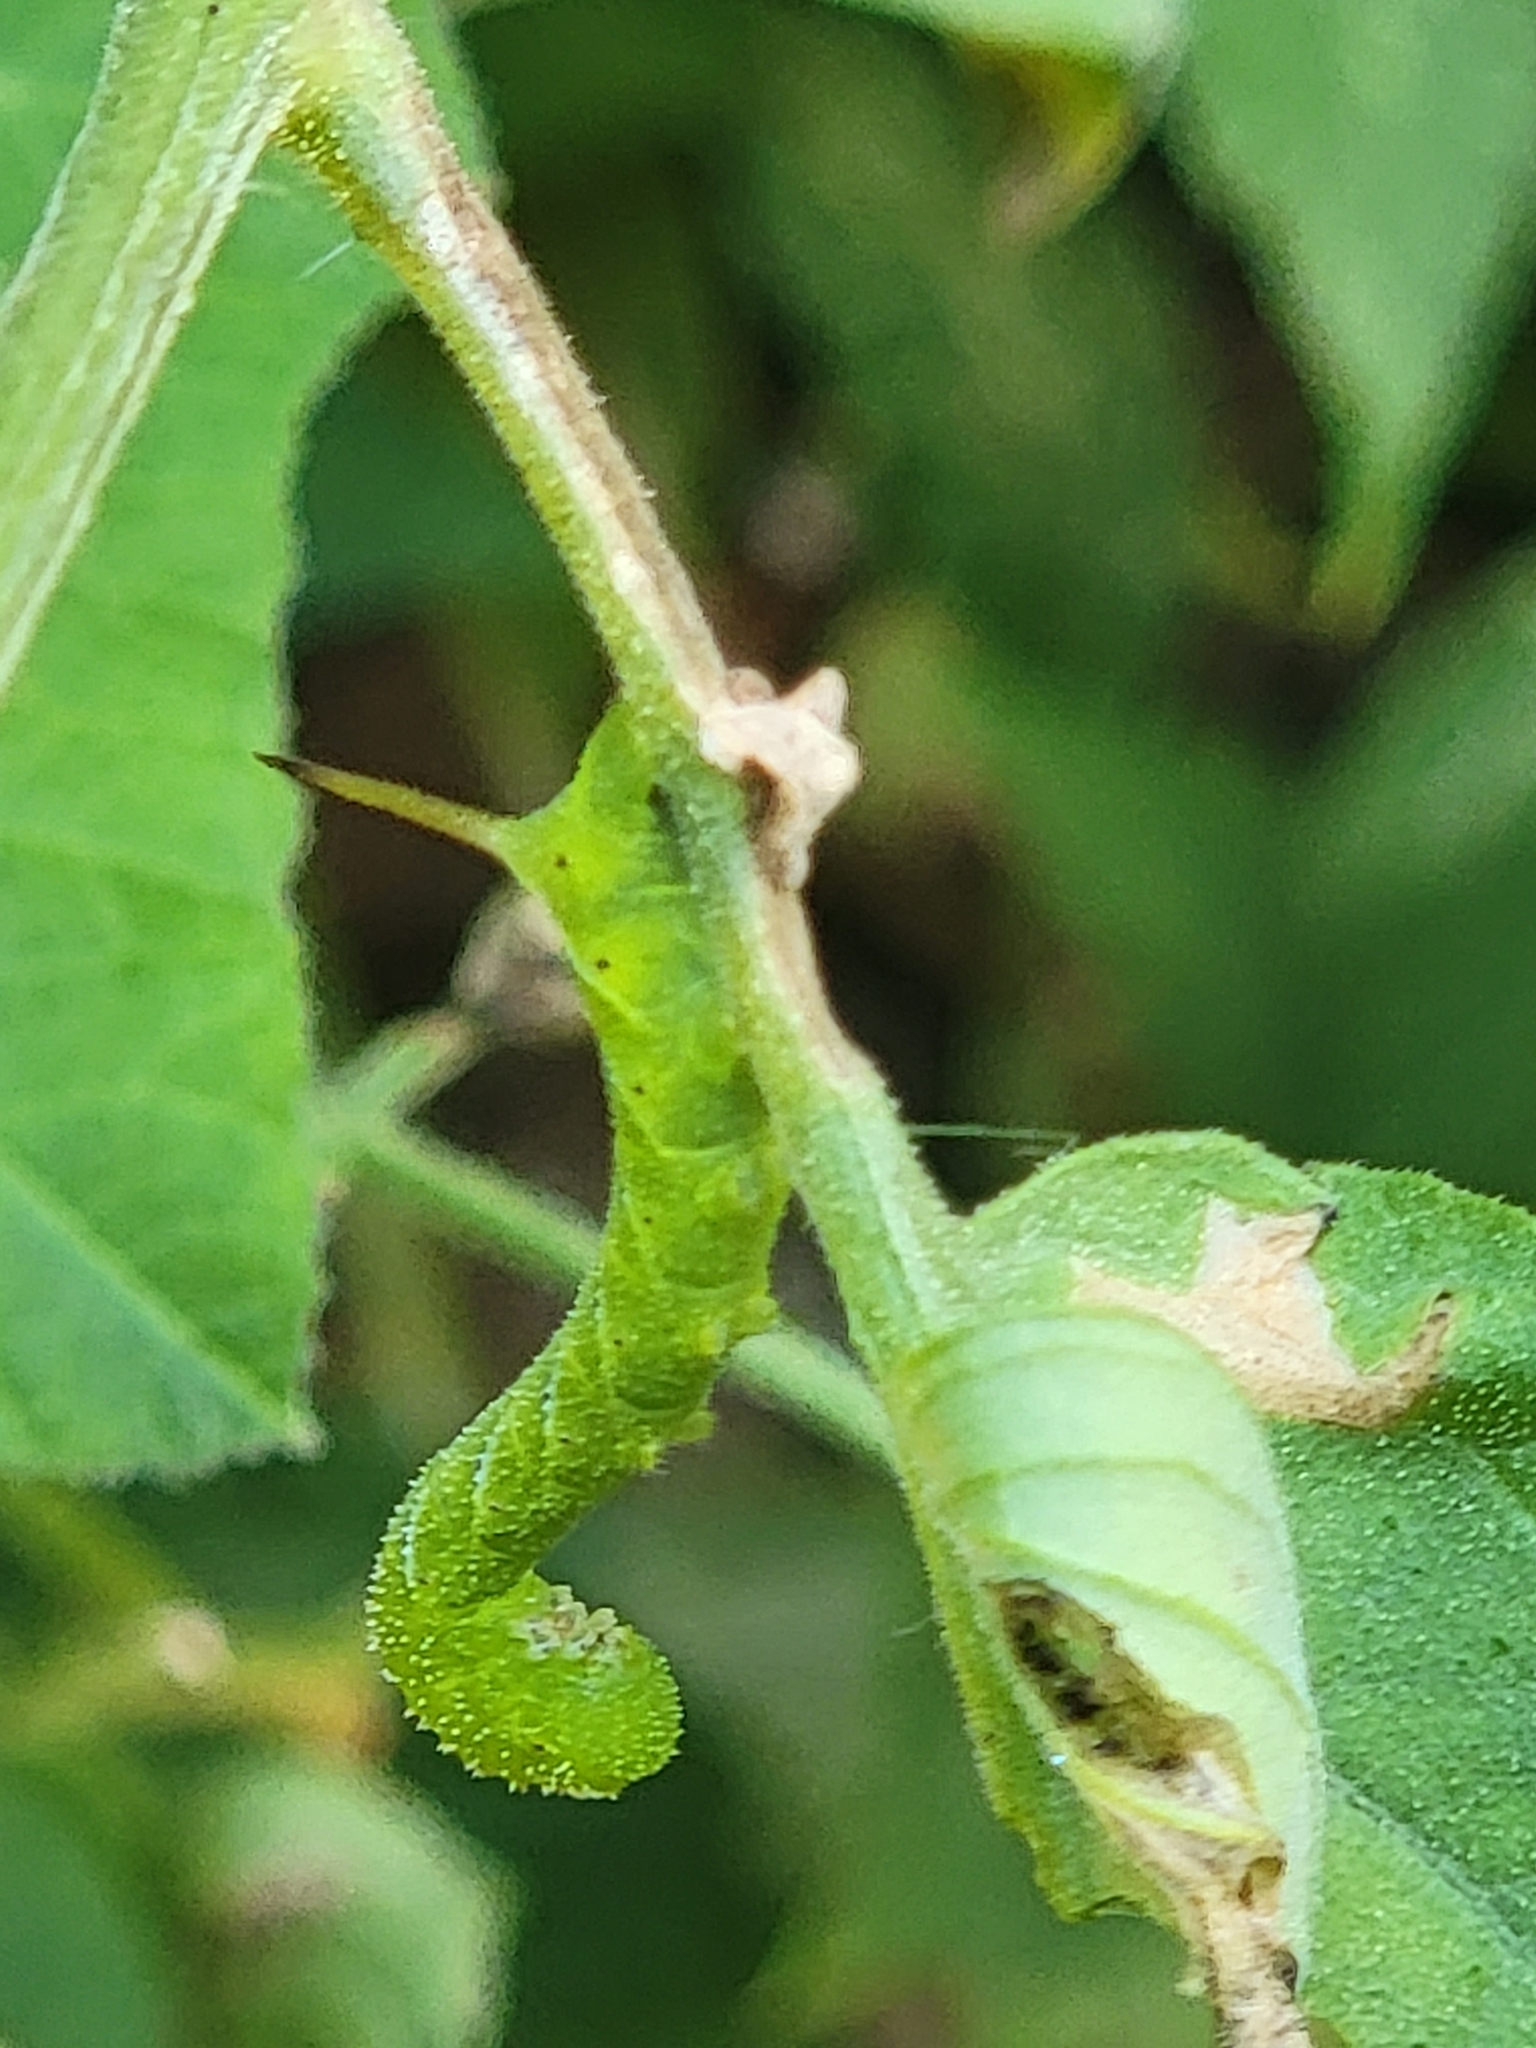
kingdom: Animalia
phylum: Arthropoda
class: Insecta
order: Lepidoptera
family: Sphingidae
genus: Manduca
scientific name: Manduca sexta
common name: Carolina sphinx
